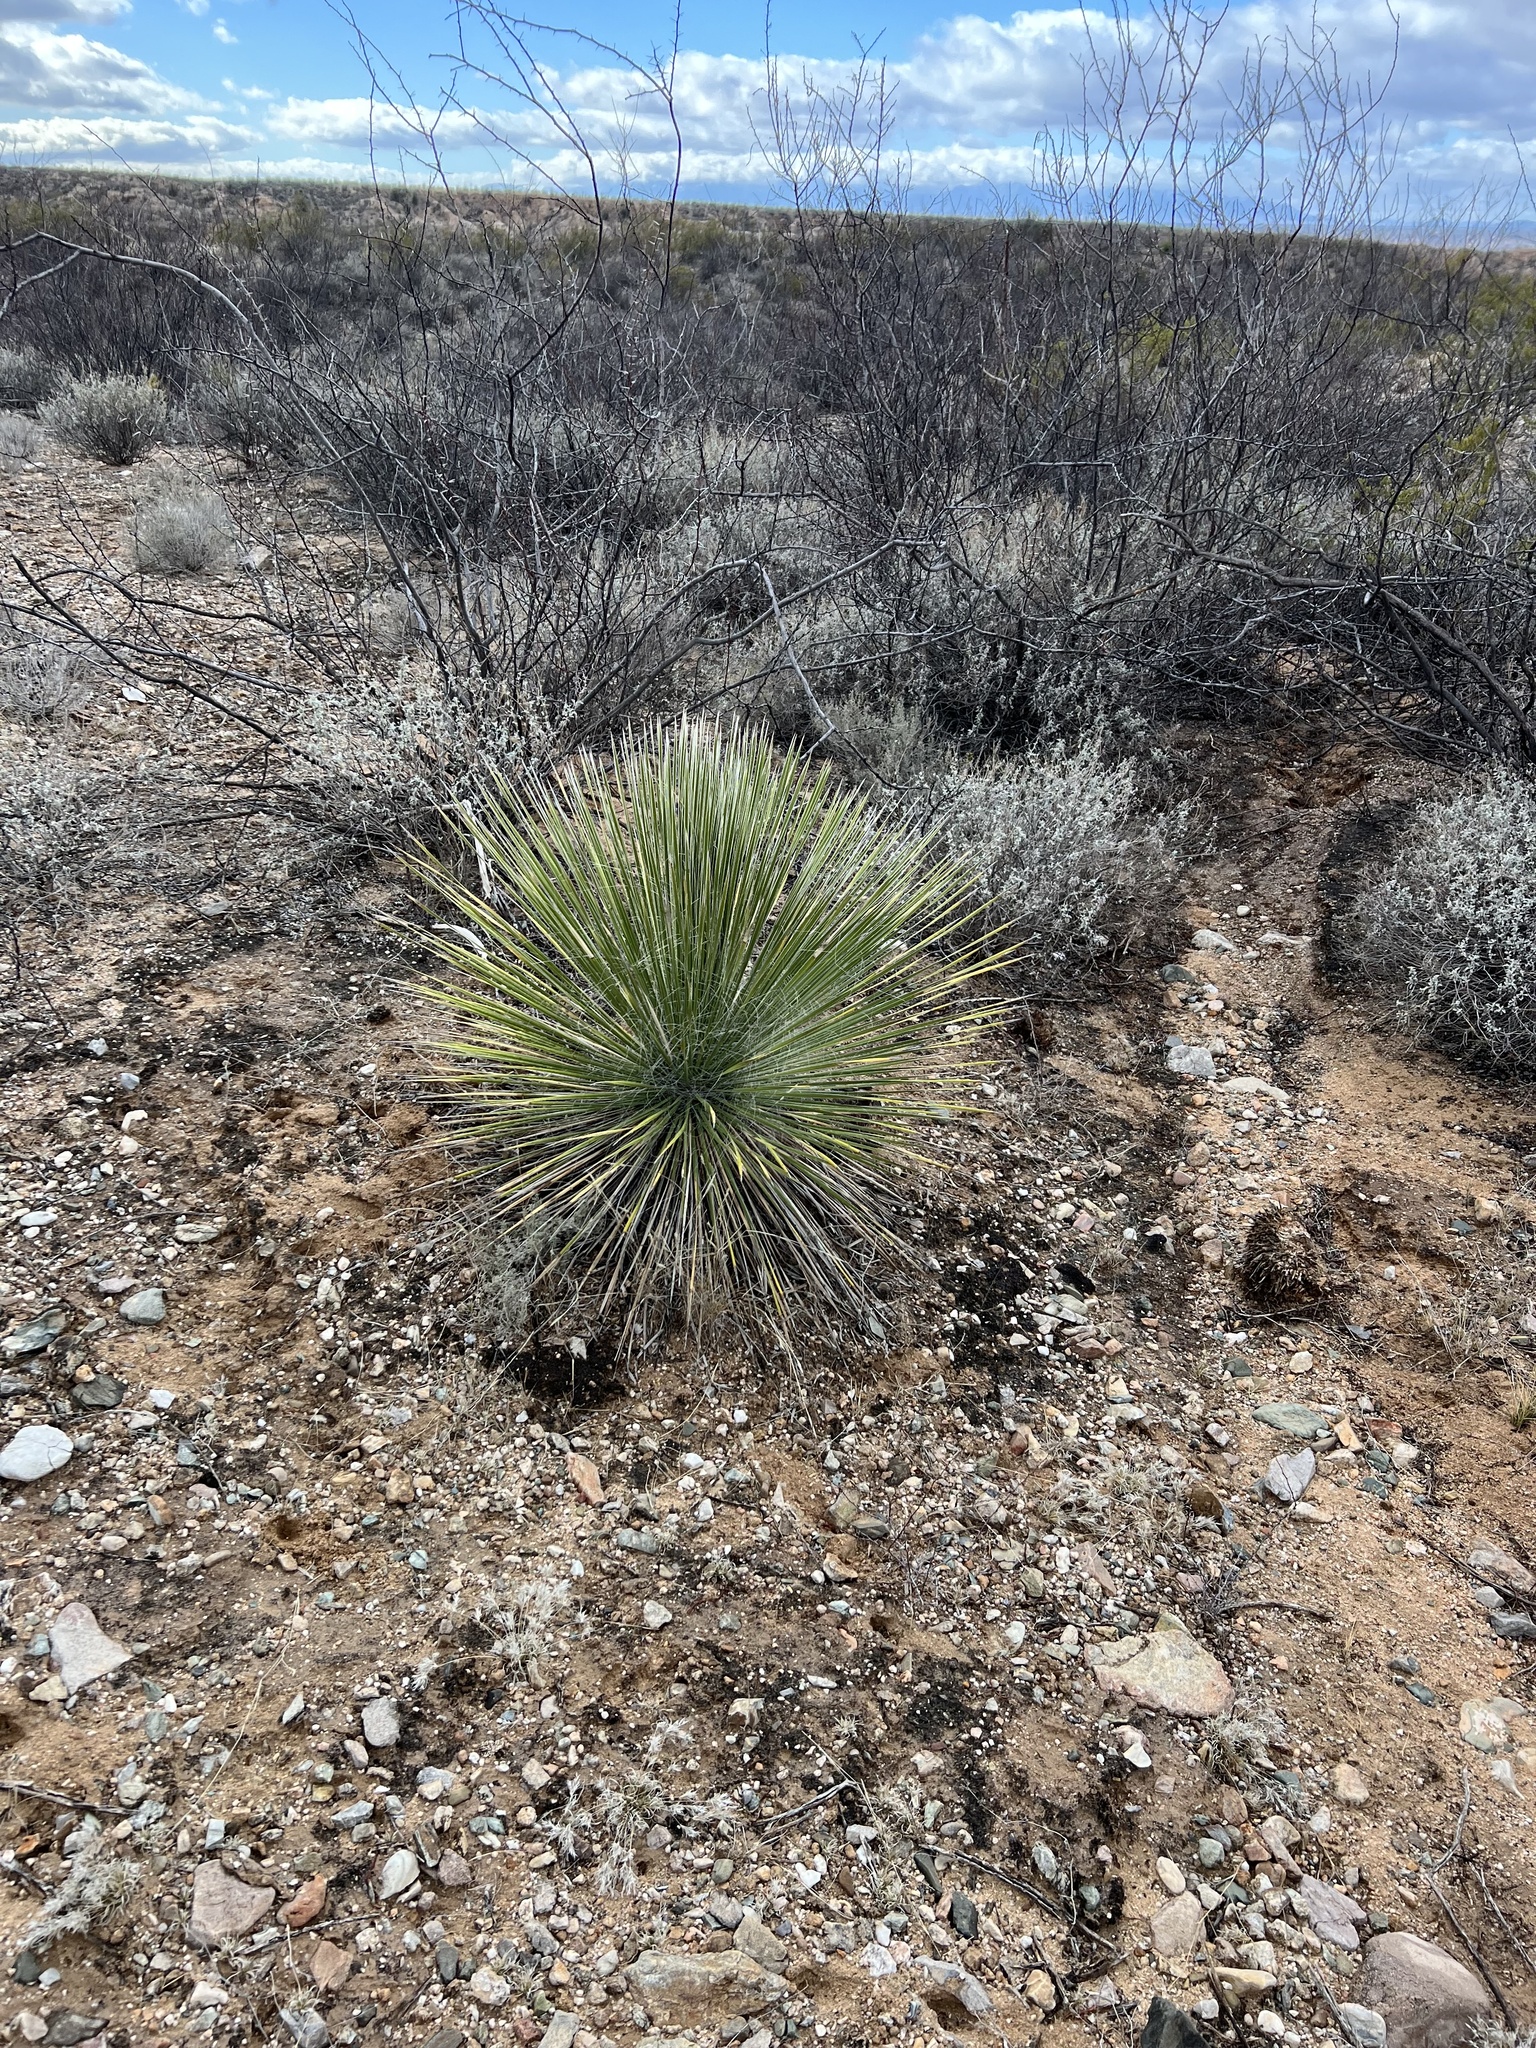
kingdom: Plantae
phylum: Tracheophyta
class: Liliopsida
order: Asparagales
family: Asparagaceae
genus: Yucca
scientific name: Yucca elata
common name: Palmella
